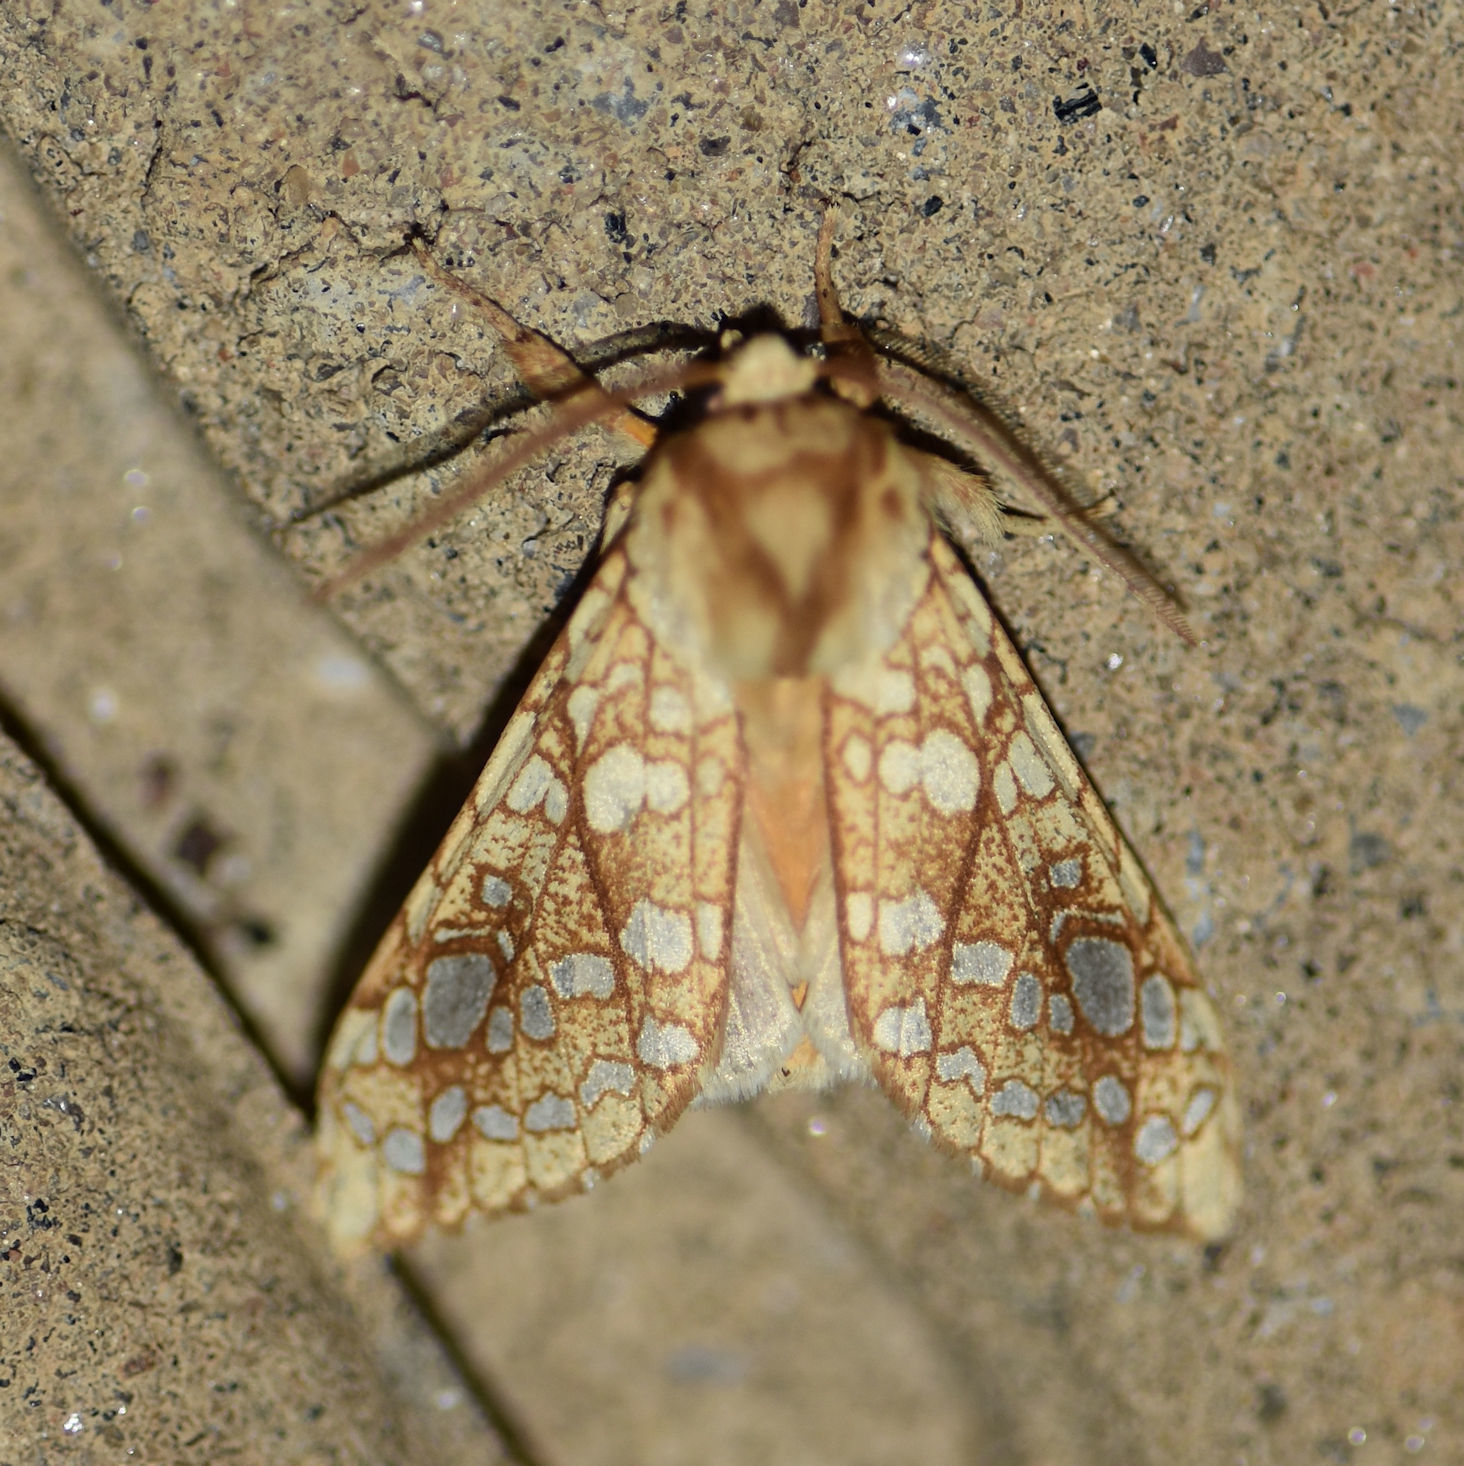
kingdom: Animalia
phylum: Arthropoda
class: Insecta
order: Lepidoptera
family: Erebidae
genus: Lophocampa
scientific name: Lophocampa caryae
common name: Hickory tussock moth
